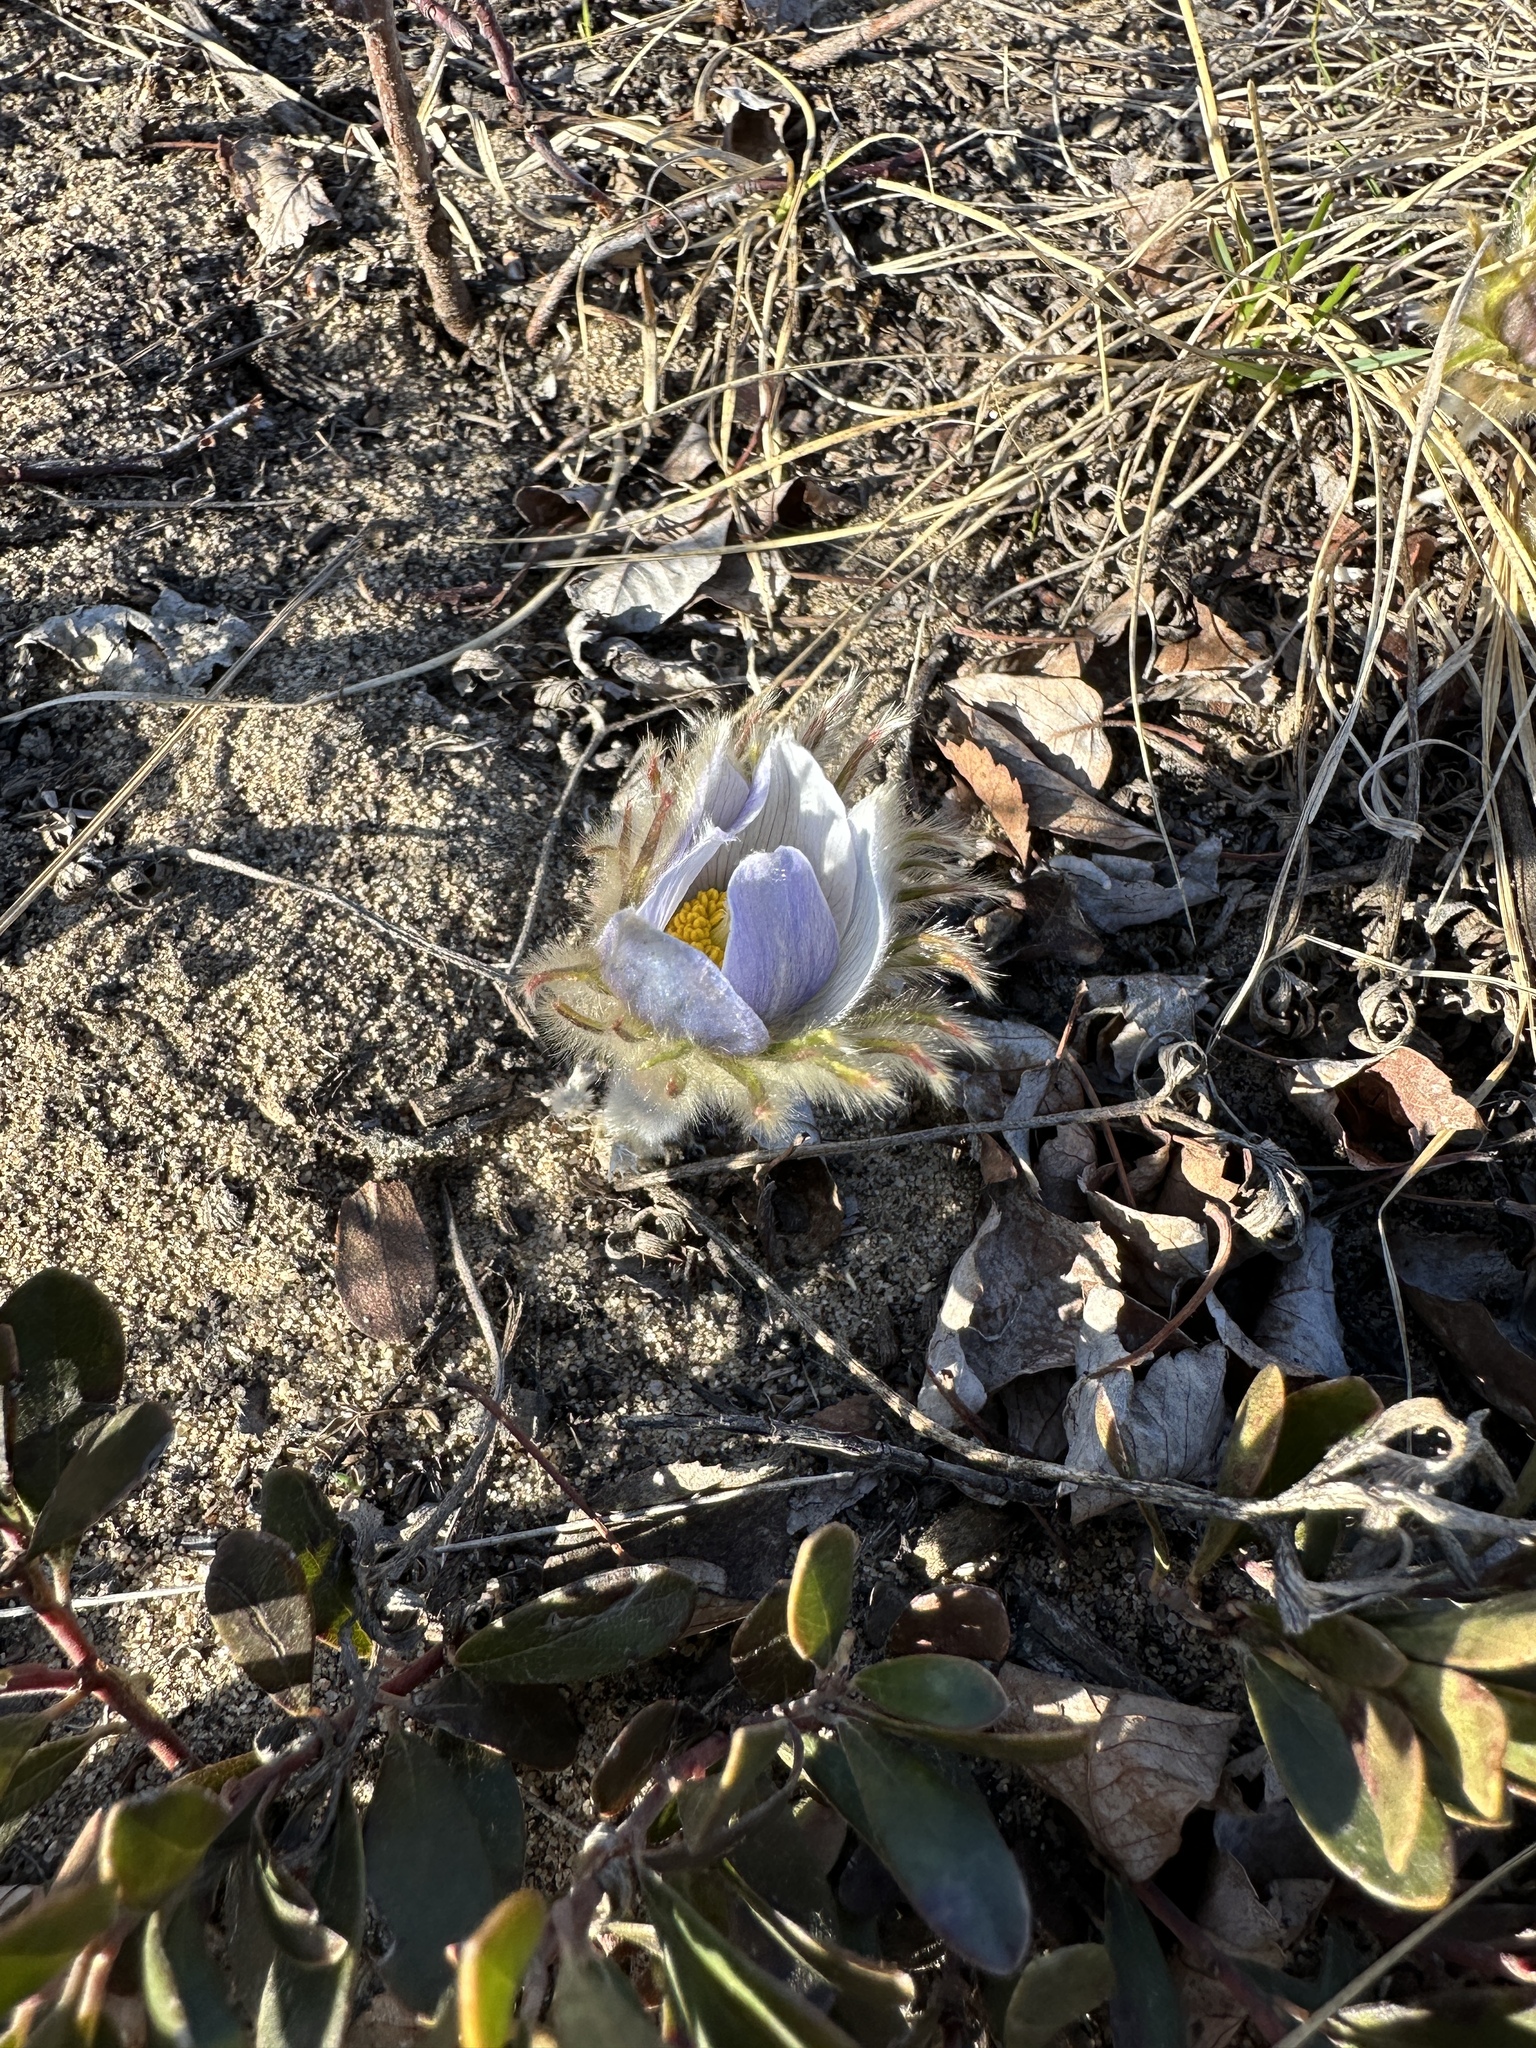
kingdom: Plantae
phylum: Tracheophyta
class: Magnoliopsida
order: Ranunculales
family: Ranunculaceae
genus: Pulsatilla
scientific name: Pulsatilla nuttalliana
